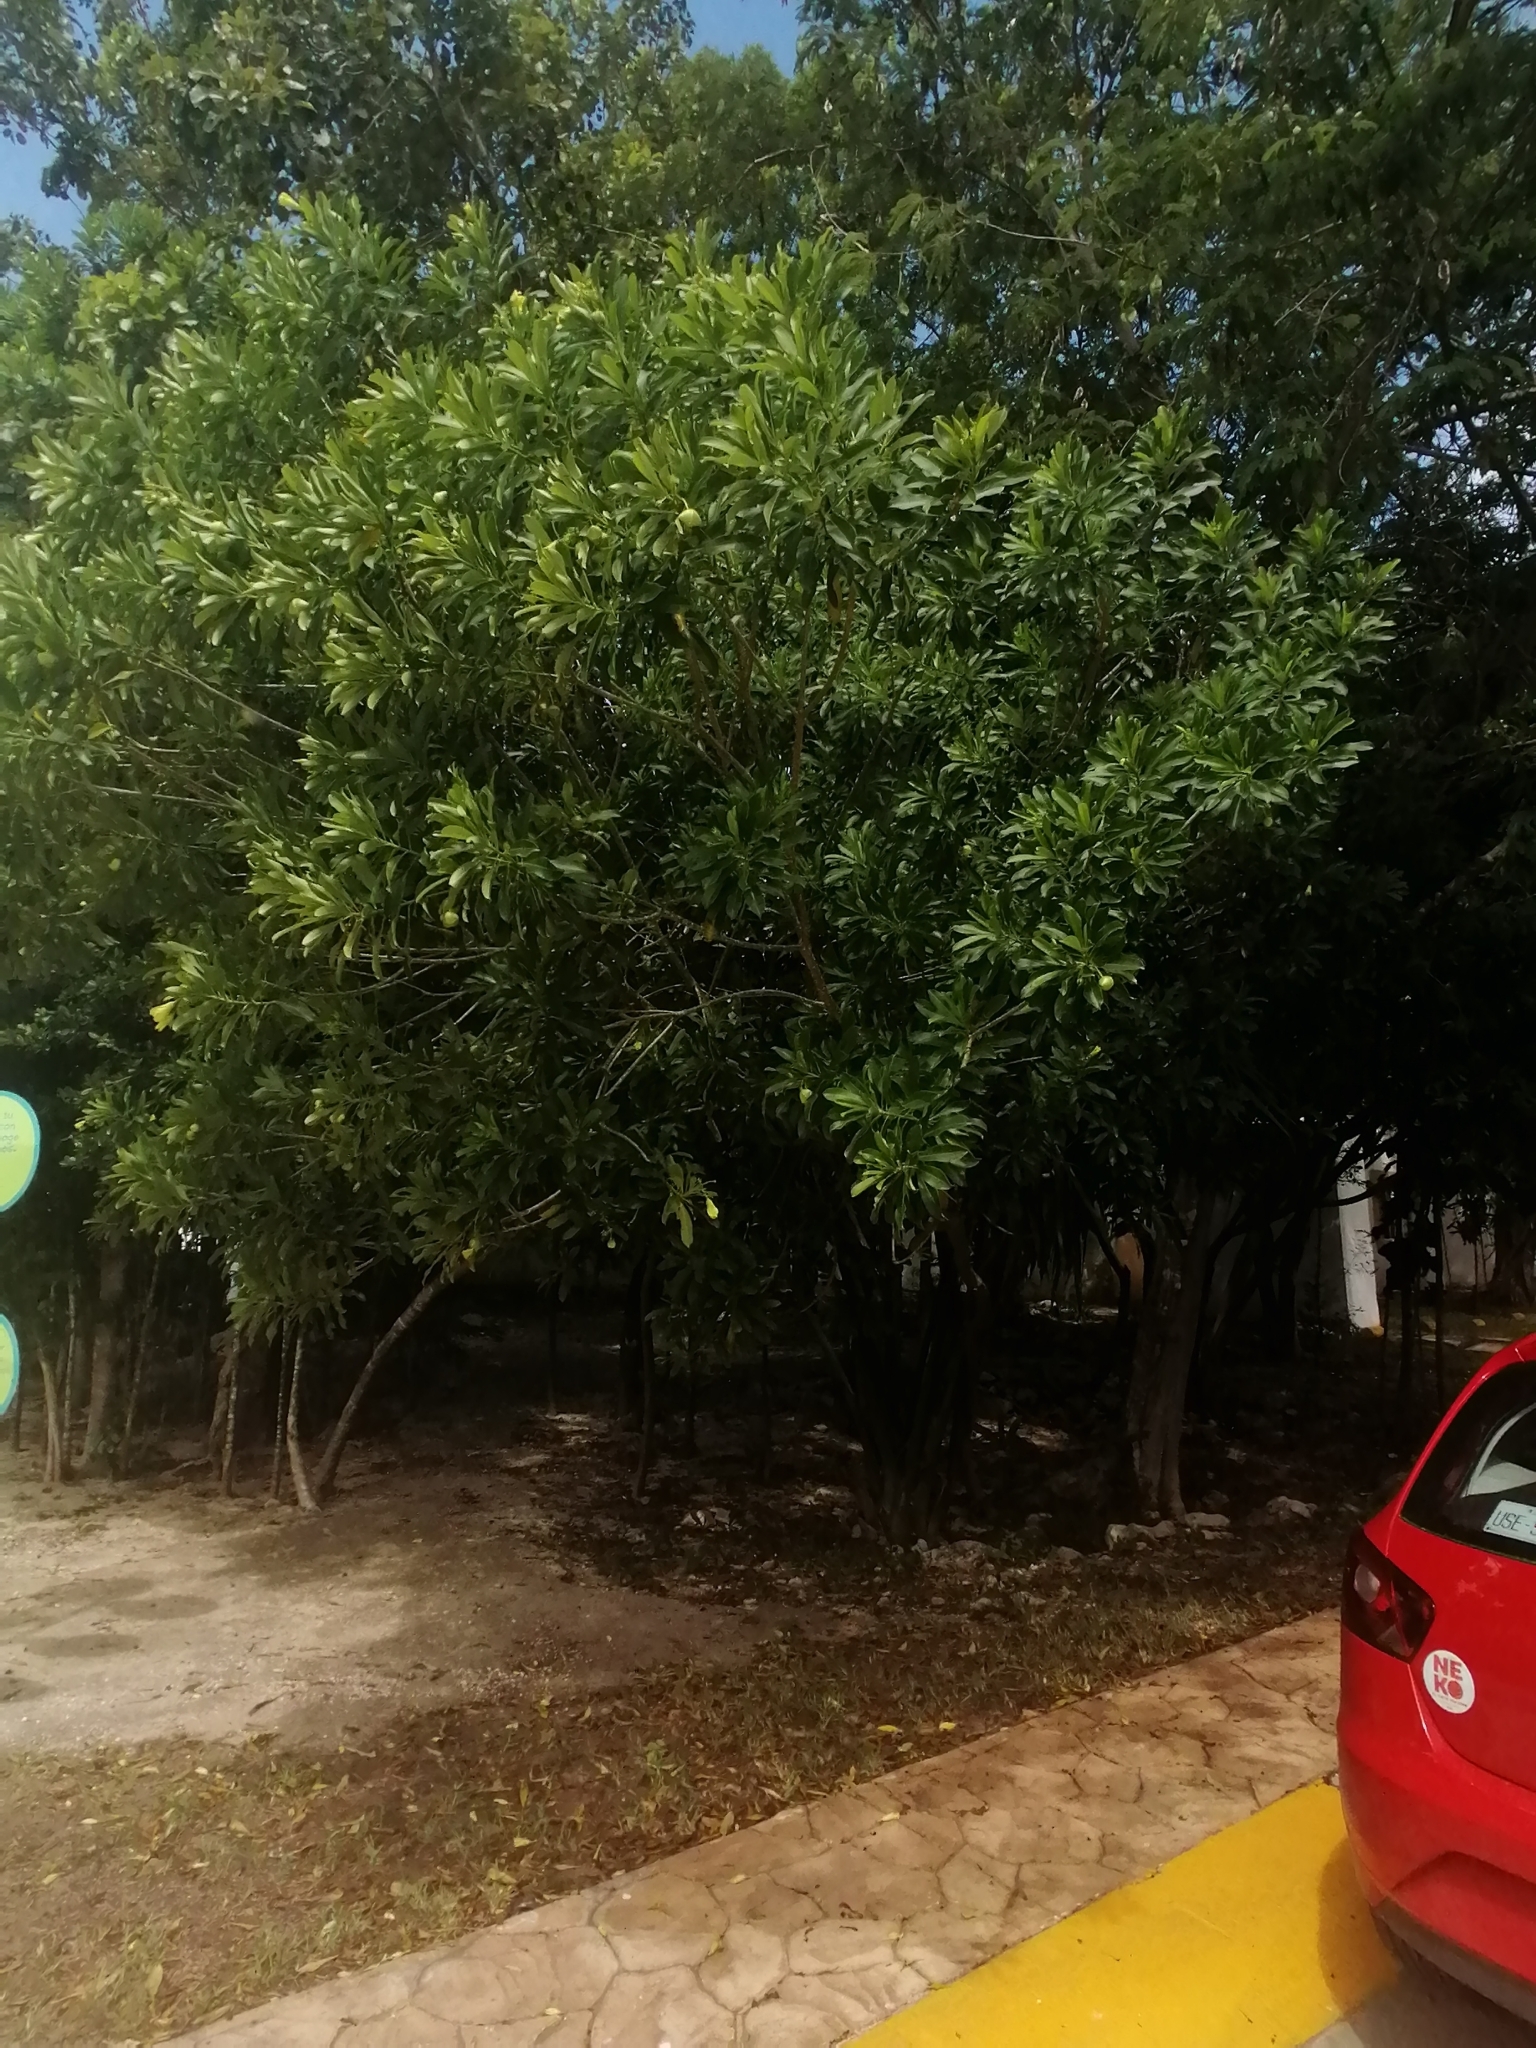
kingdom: Plantae
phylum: Tracheophyta
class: Magnoliopsida
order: Gentianales
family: Apocynaceae
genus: Cascabela
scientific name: Cascabela gaumeri
